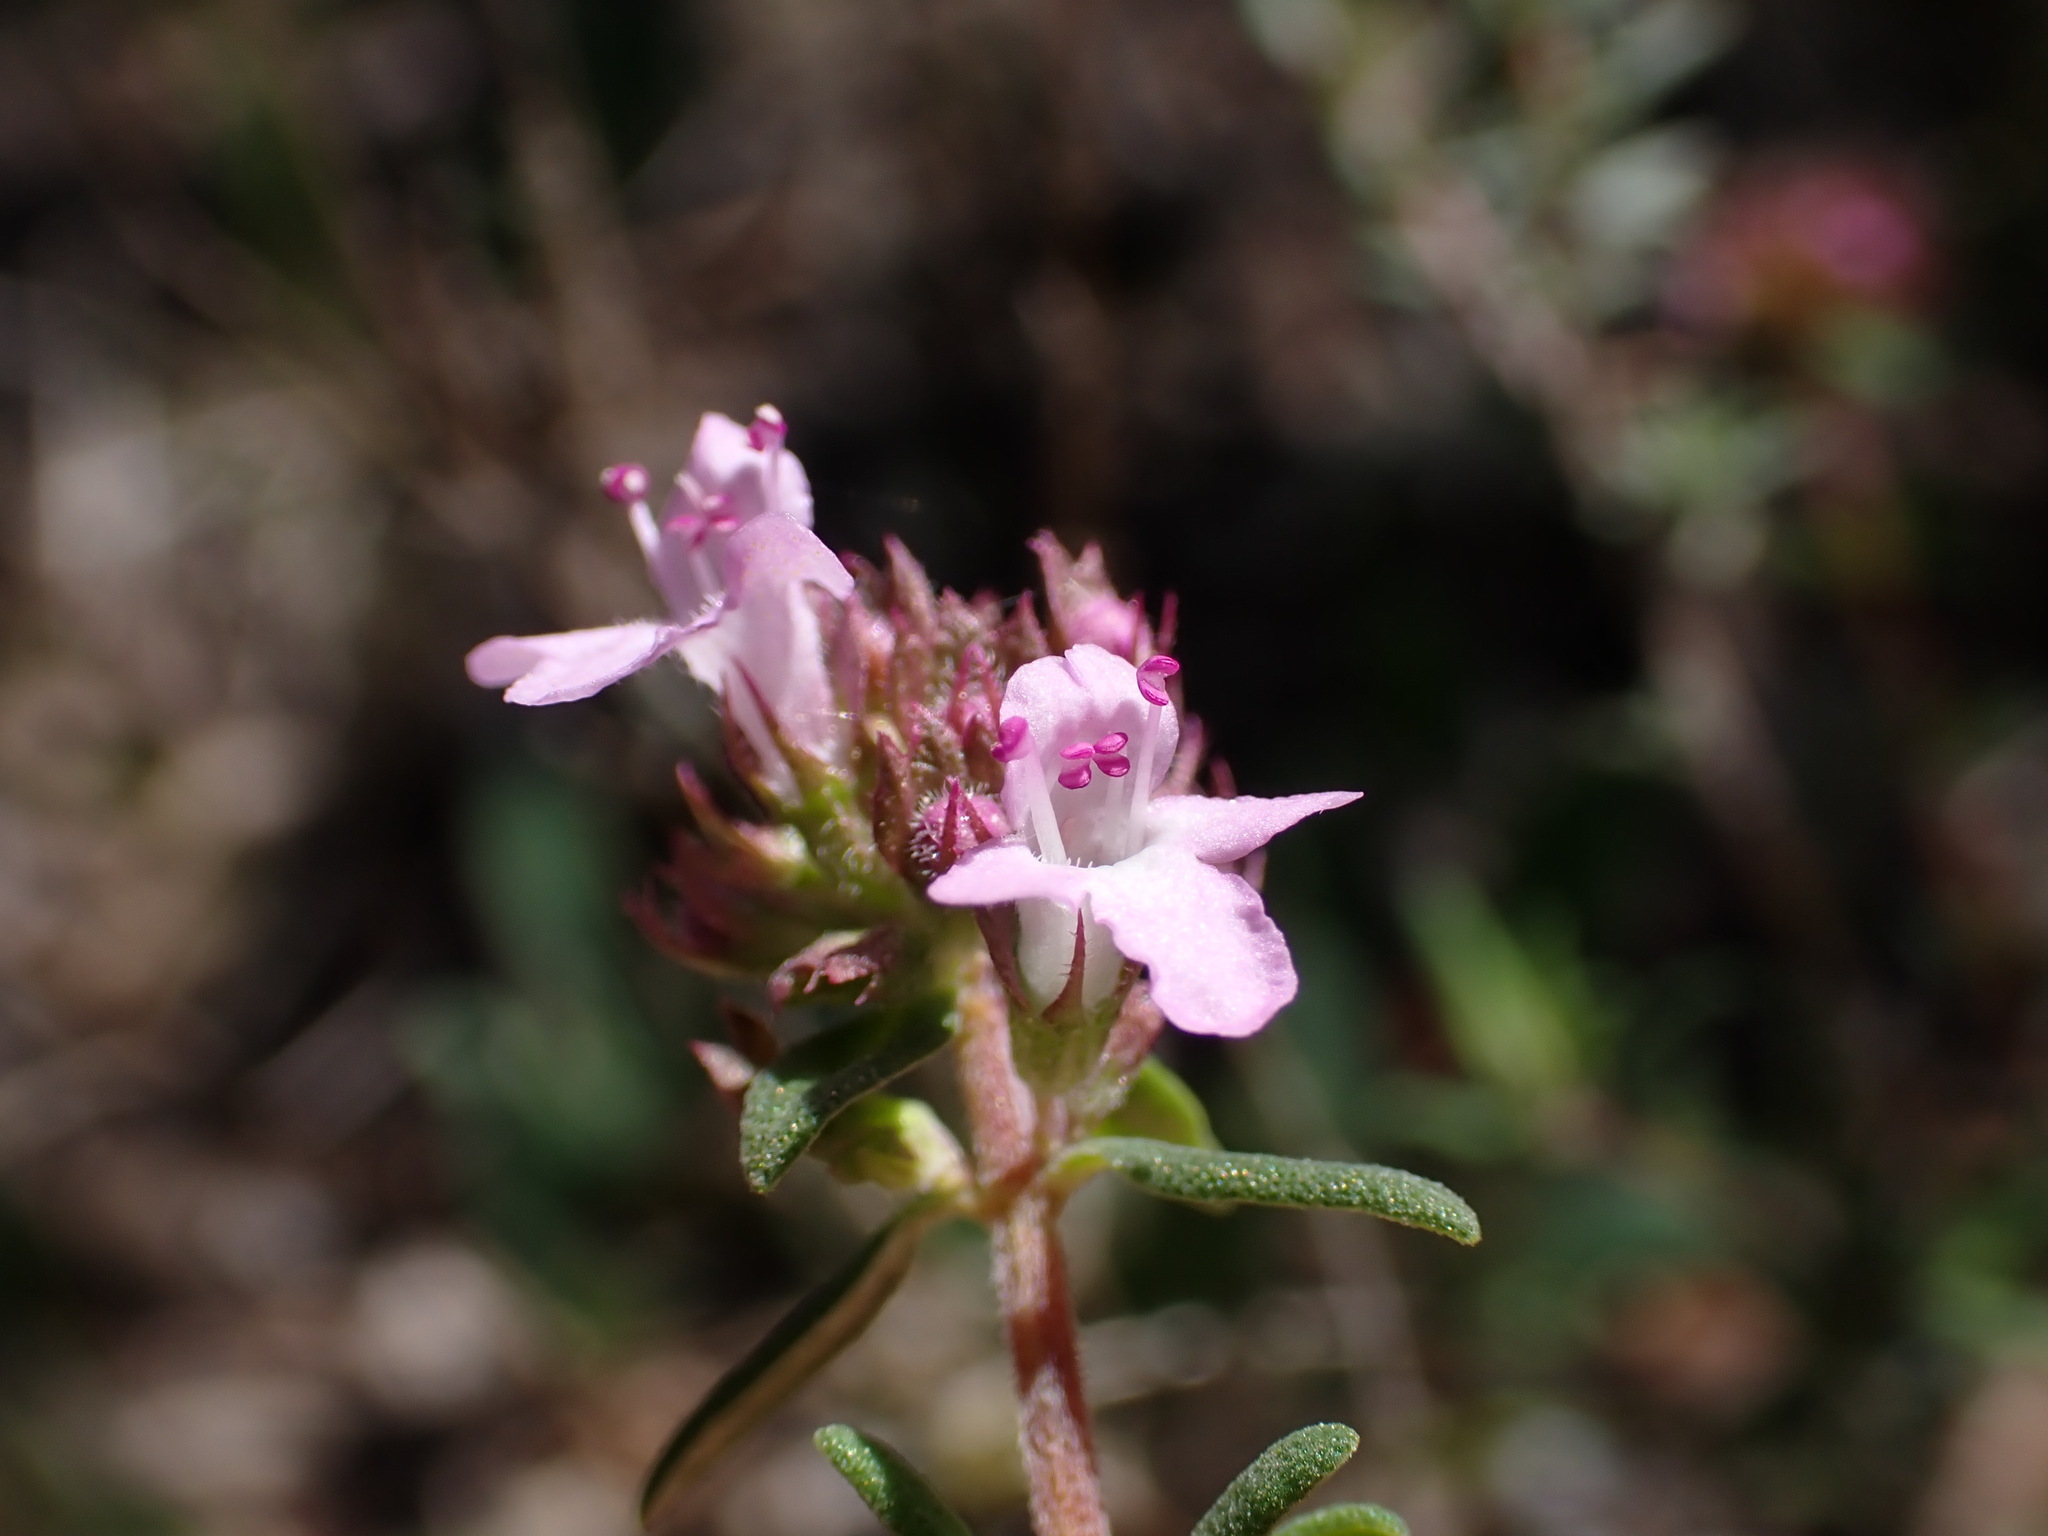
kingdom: Plantae
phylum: Tracheophyta
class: Magnoliopsida
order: Lamiales
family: Lamiaceae
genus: Thymus
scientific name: Thymus vulgaris
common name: Garden thyme
